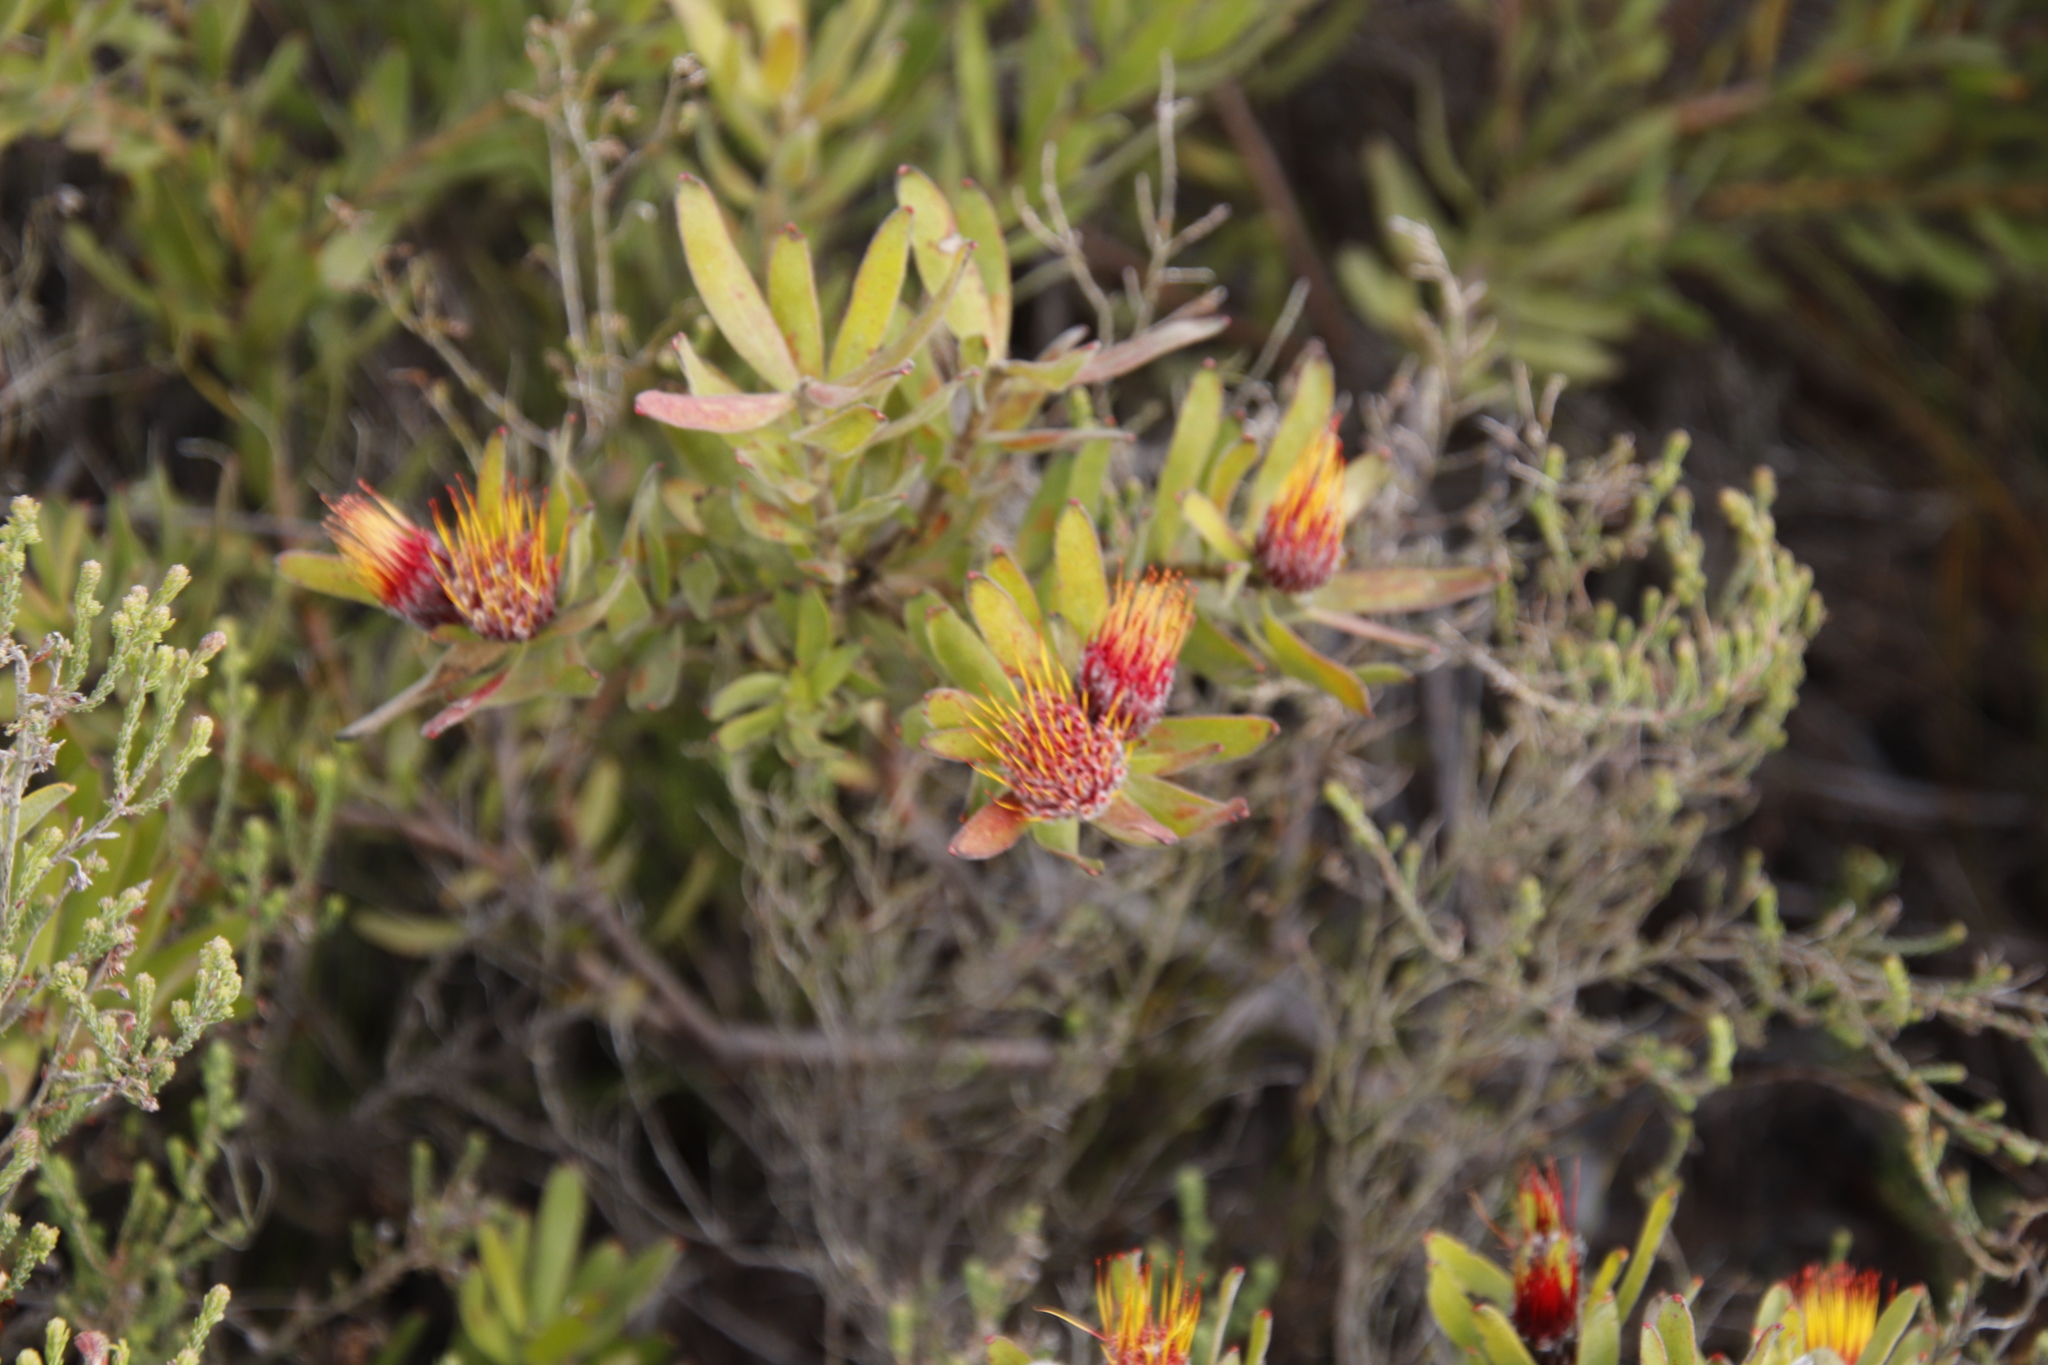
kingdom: Plantae
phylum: Tracheophyta
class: Magnoliopsida
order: Proteales
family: Proteaceae
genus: Leucospermum
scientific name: Leucospermum oleifolium
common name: Matches
